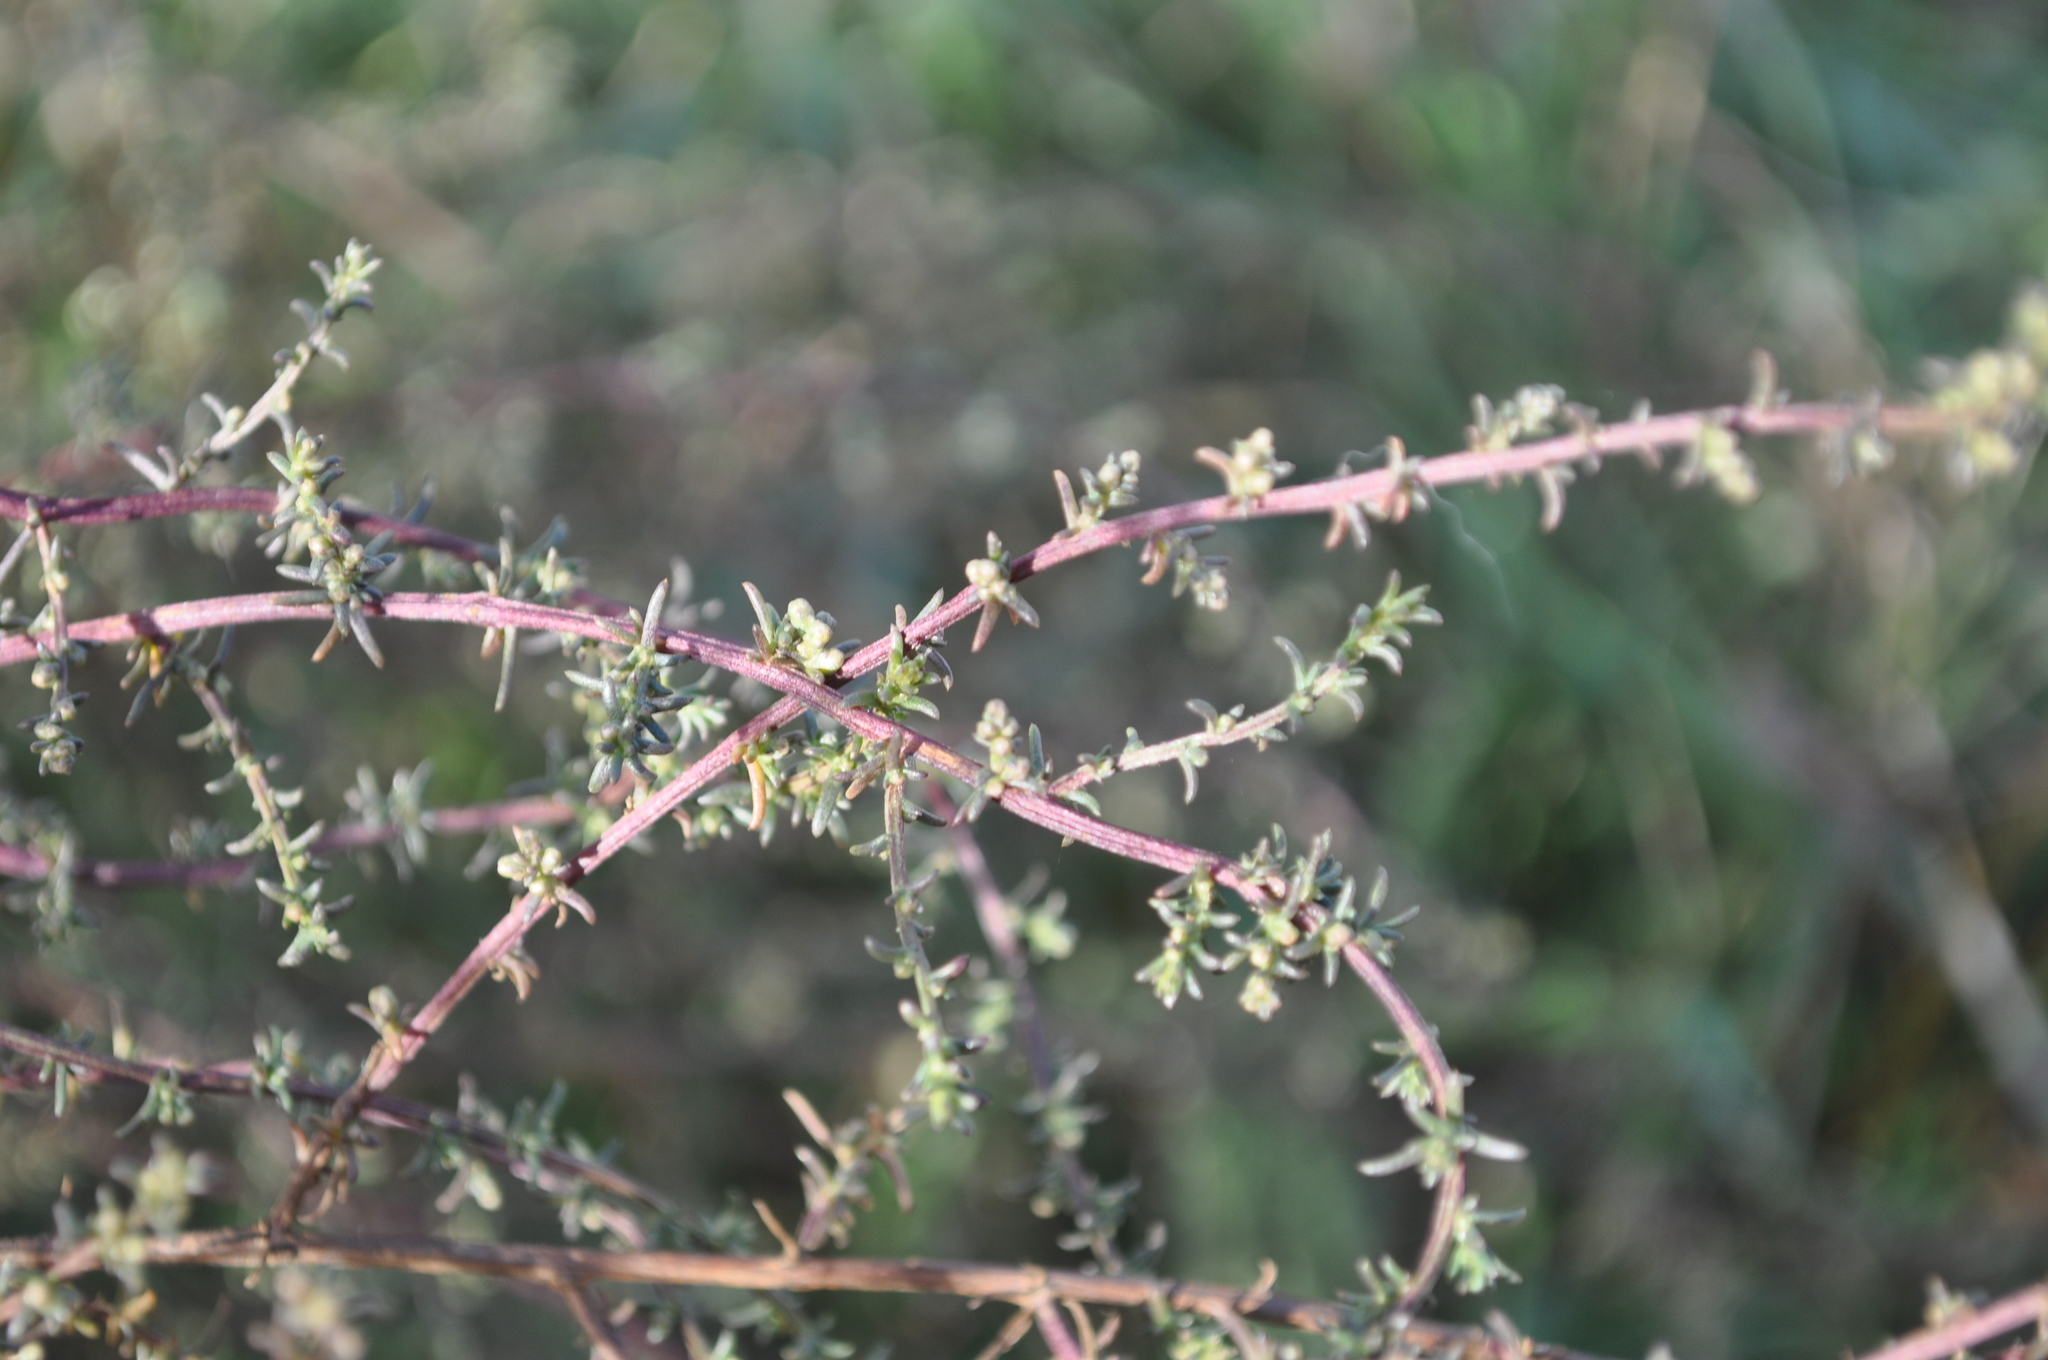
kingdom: Plantae
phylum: Tracheophyta
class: Magnoliopsida
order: Asterales
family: Asteraceae
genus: Artemisia
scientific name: Artemisia campestris
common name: Field wormwood
